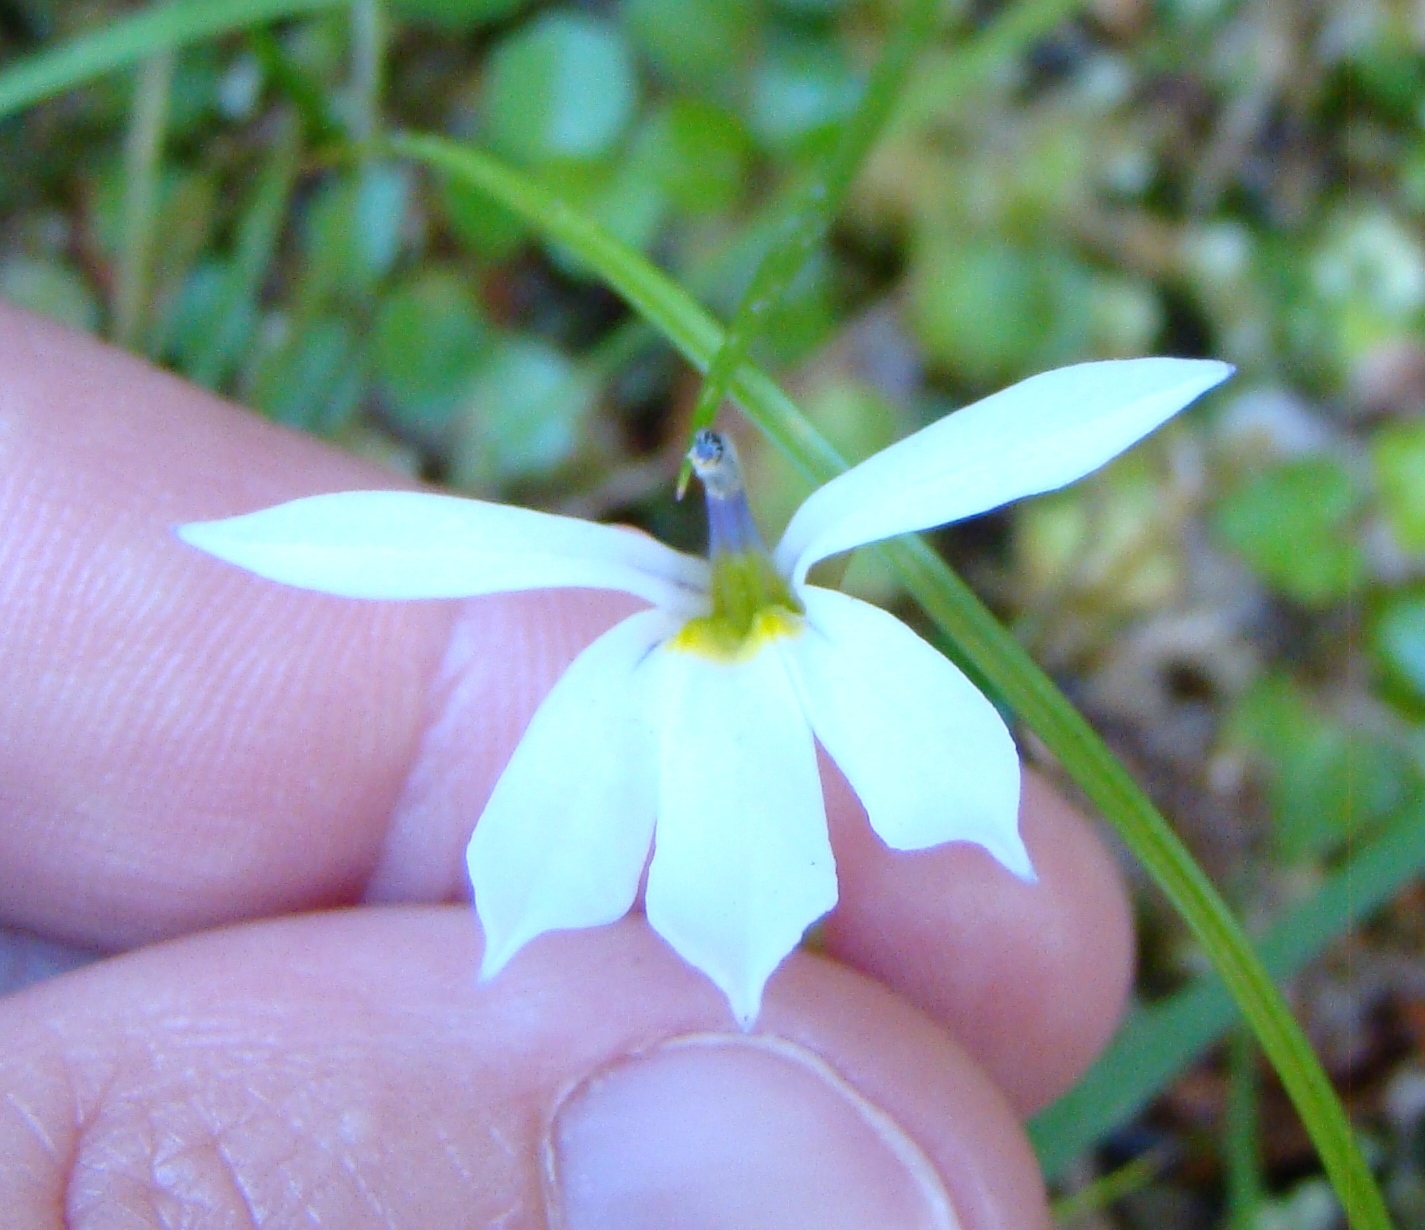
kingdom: Plantae
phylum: Tracheophyta
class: Magnoliopsida
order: Asterales
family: Campanulaceae
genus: Lobelia
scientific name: Lobelia angulata
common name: Lawn lobelia
